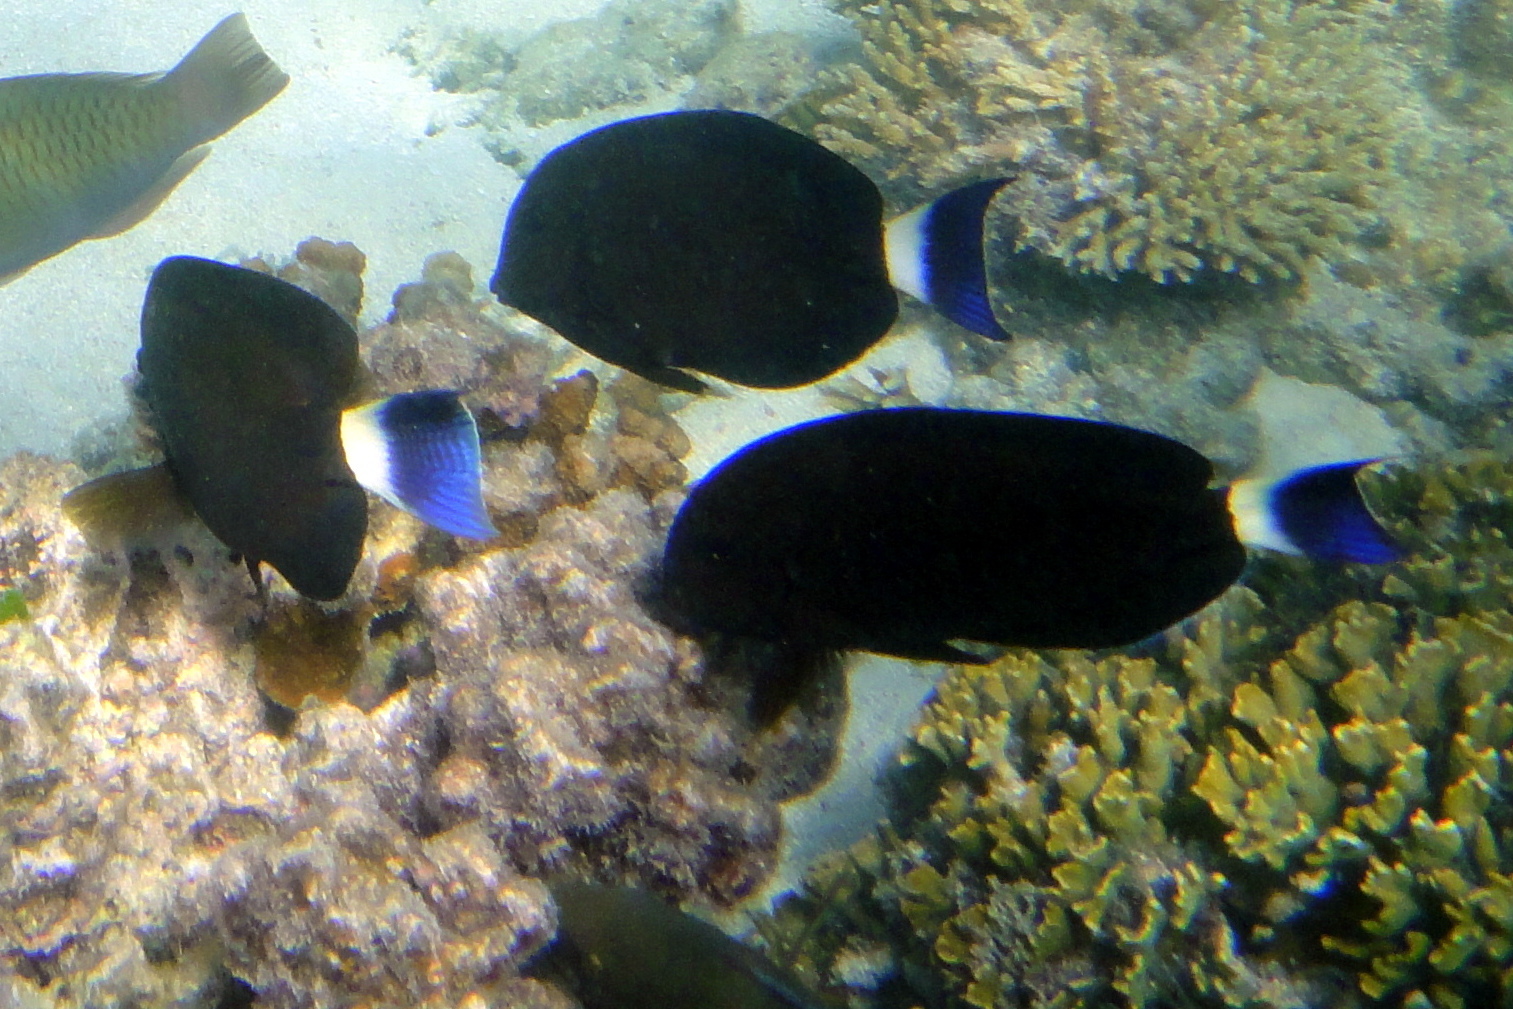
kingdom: Animalia
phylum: Chordata
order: Perciformes
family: Acanthuridae
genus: Acanthurus
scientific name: Acanthurus blochii
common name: Blue-banded pualu
